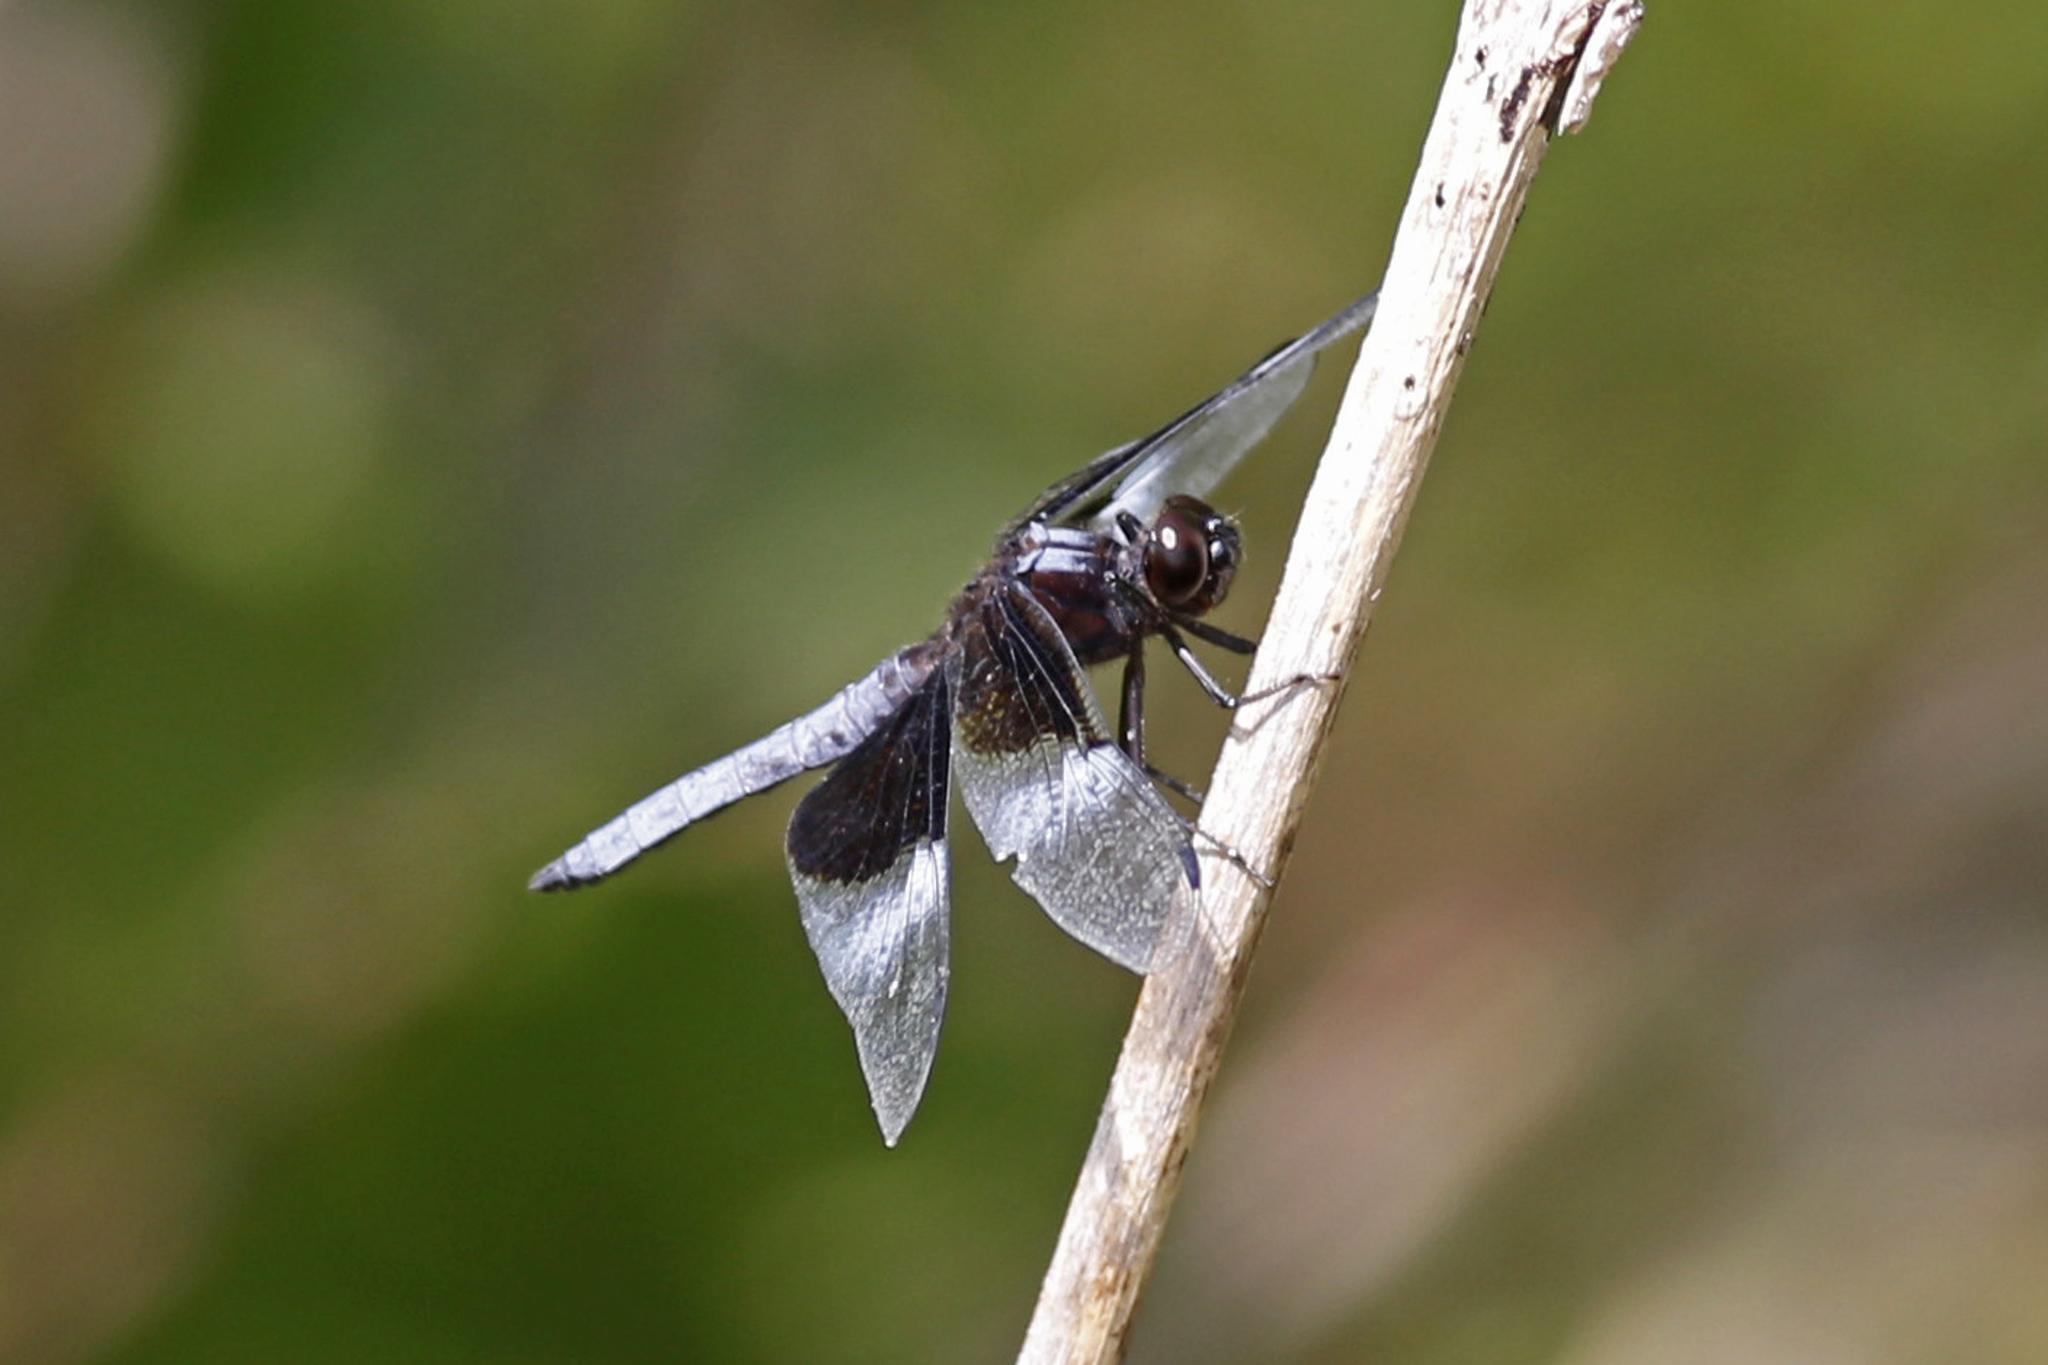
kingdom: Animalia
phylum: Arthropoda
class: Insecta
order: Odonata
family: Libellulidae
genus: Libellula
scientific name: Libellula luctuosa
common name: Widow skimmer
